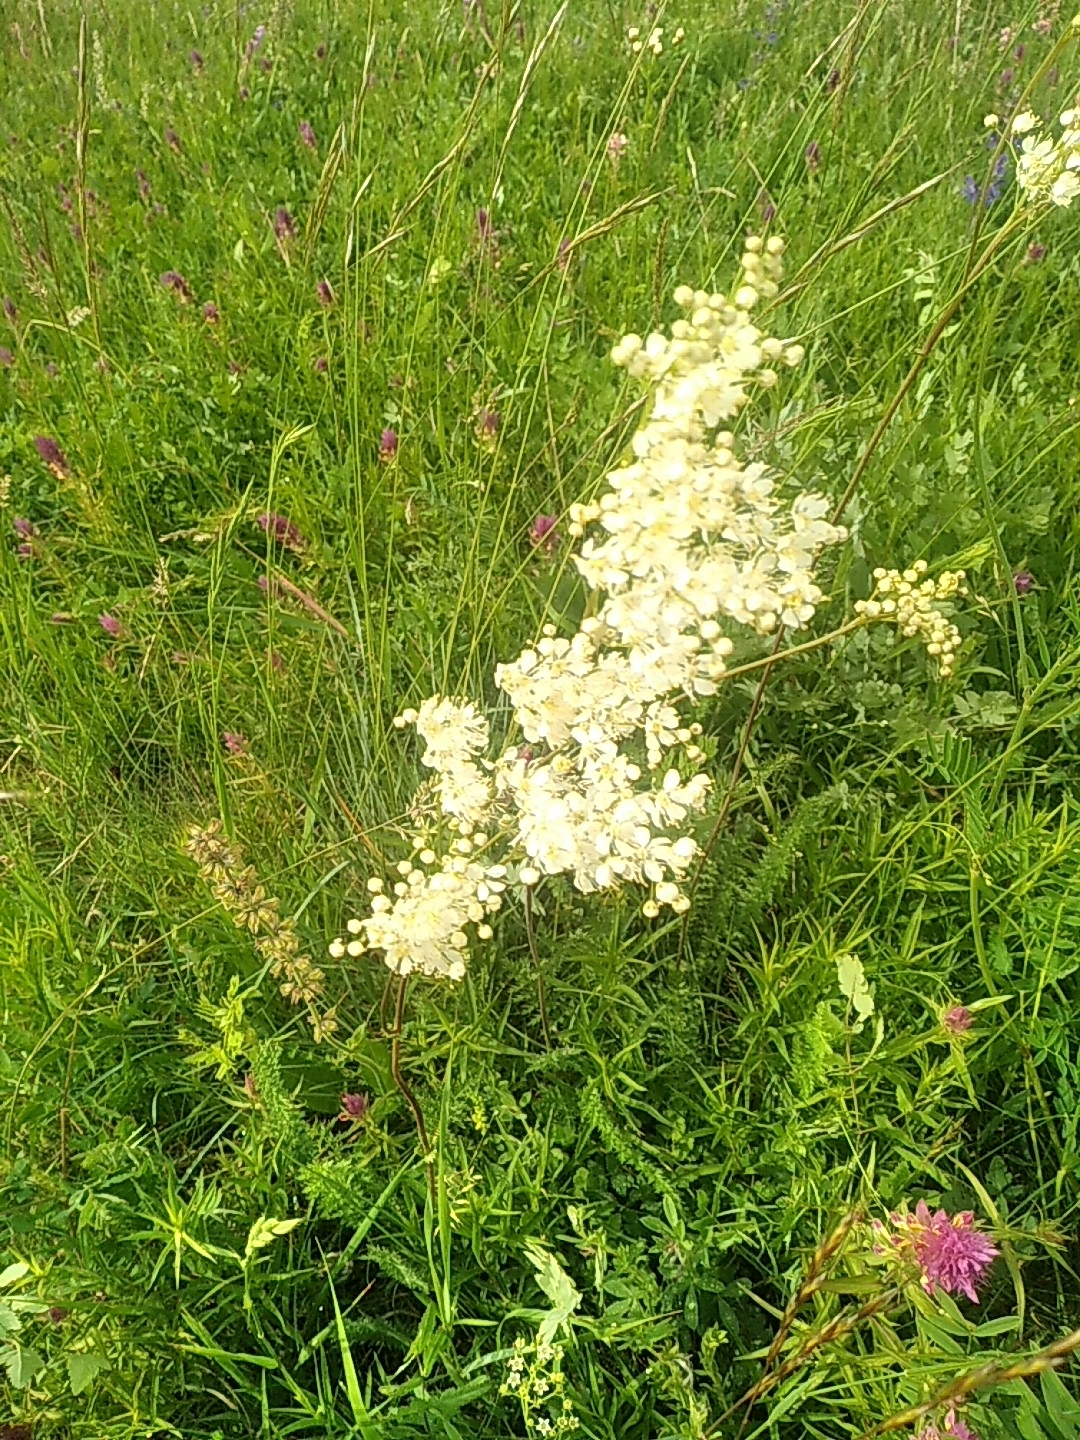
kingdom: Plantae
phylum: Tracheophyta
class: Magnoliopsida
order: Rosales
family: Rosaceae
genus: Filipendula
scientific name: Filipendula vulgaris
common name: Dropwort
